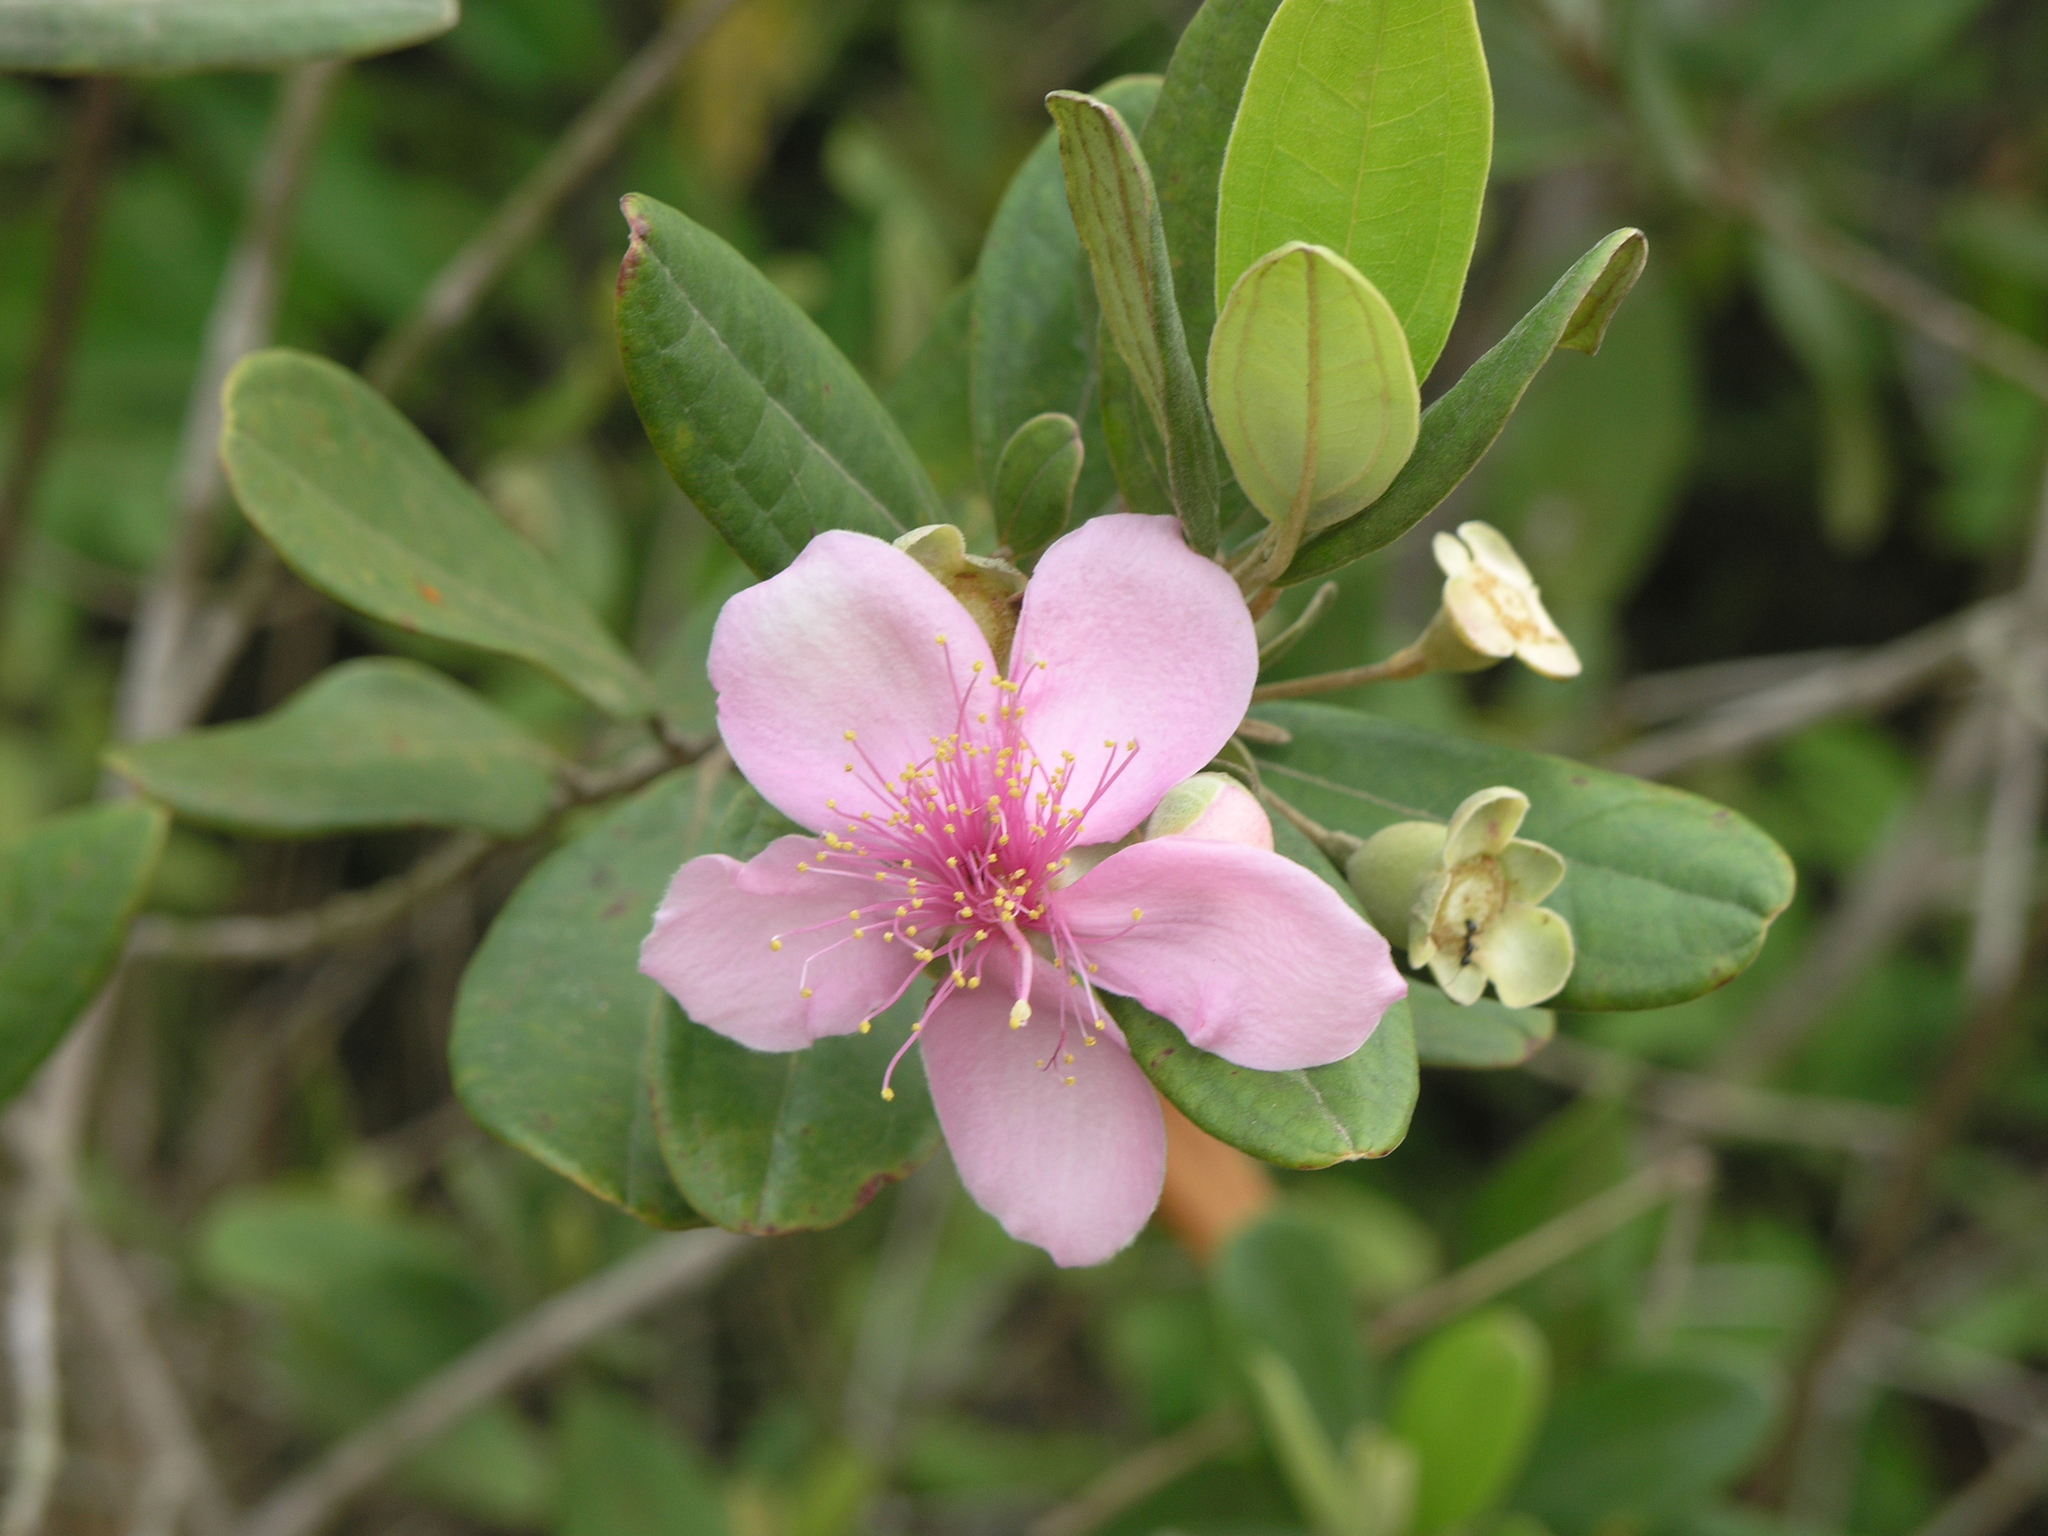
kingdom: Plantae
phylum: Tracheophyta
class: Magnoliopsida
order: Myrtales
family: Myrtaceae
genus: Rhodomyrtus
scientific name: Rhodomyrtus tomentosa
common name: Rose myrtle
